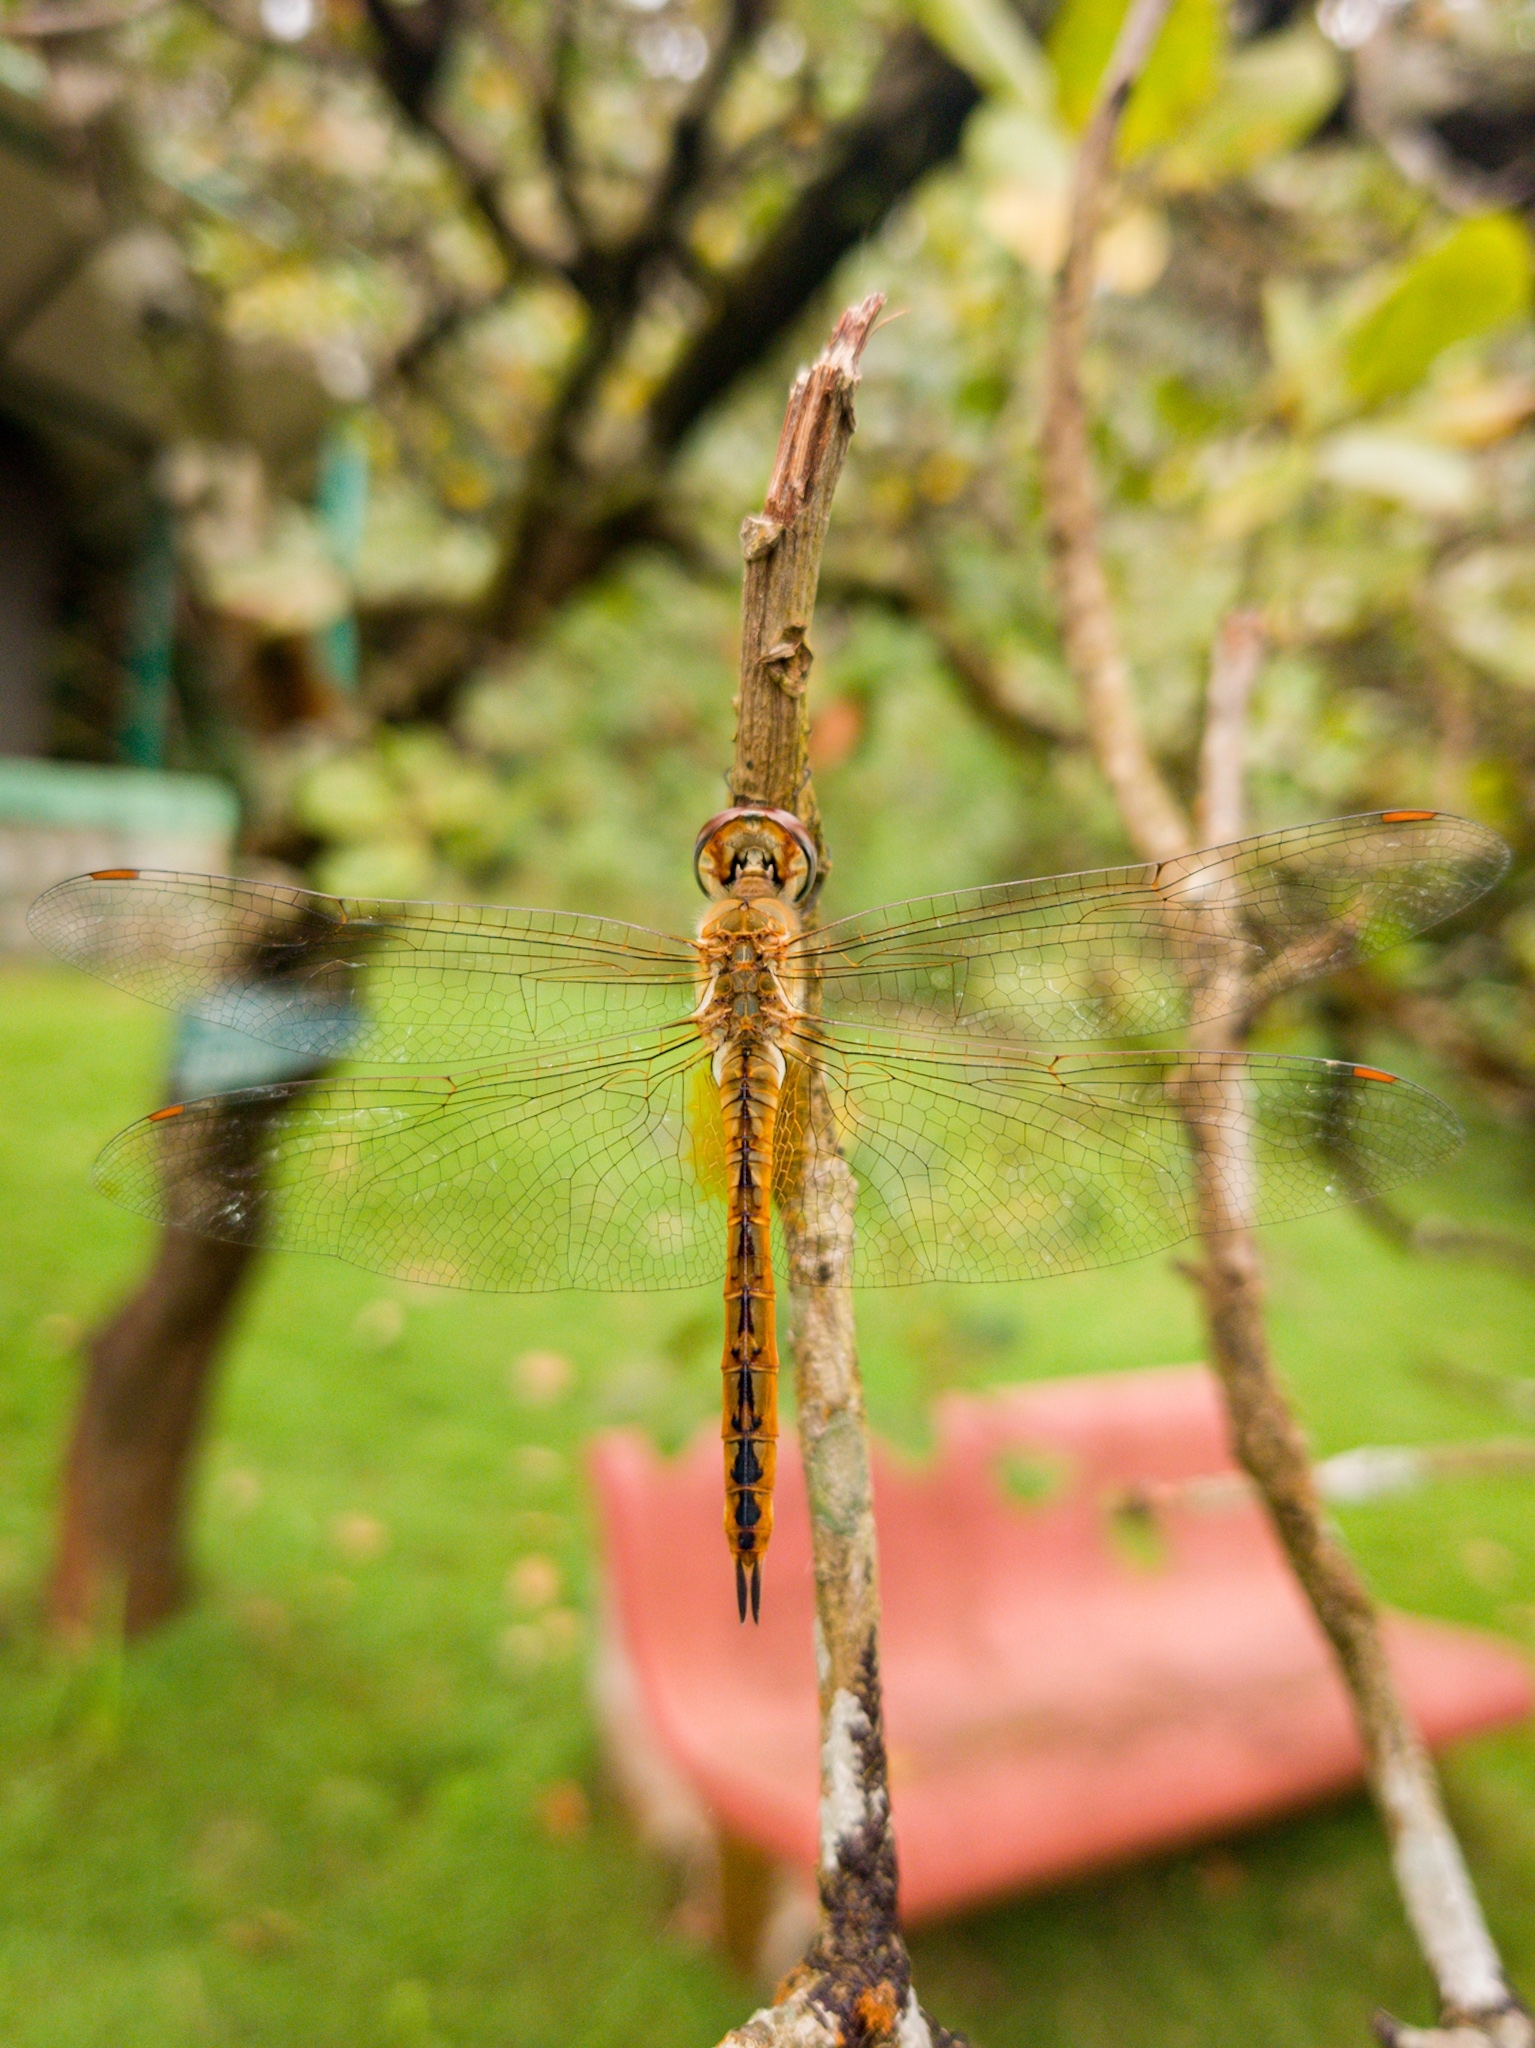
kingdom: Animalia
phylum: Arthropoda
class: Insecta
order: Odonata
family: Libellulidae
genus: Pantala
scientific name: Pantala flavescens
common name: Wandering glider
